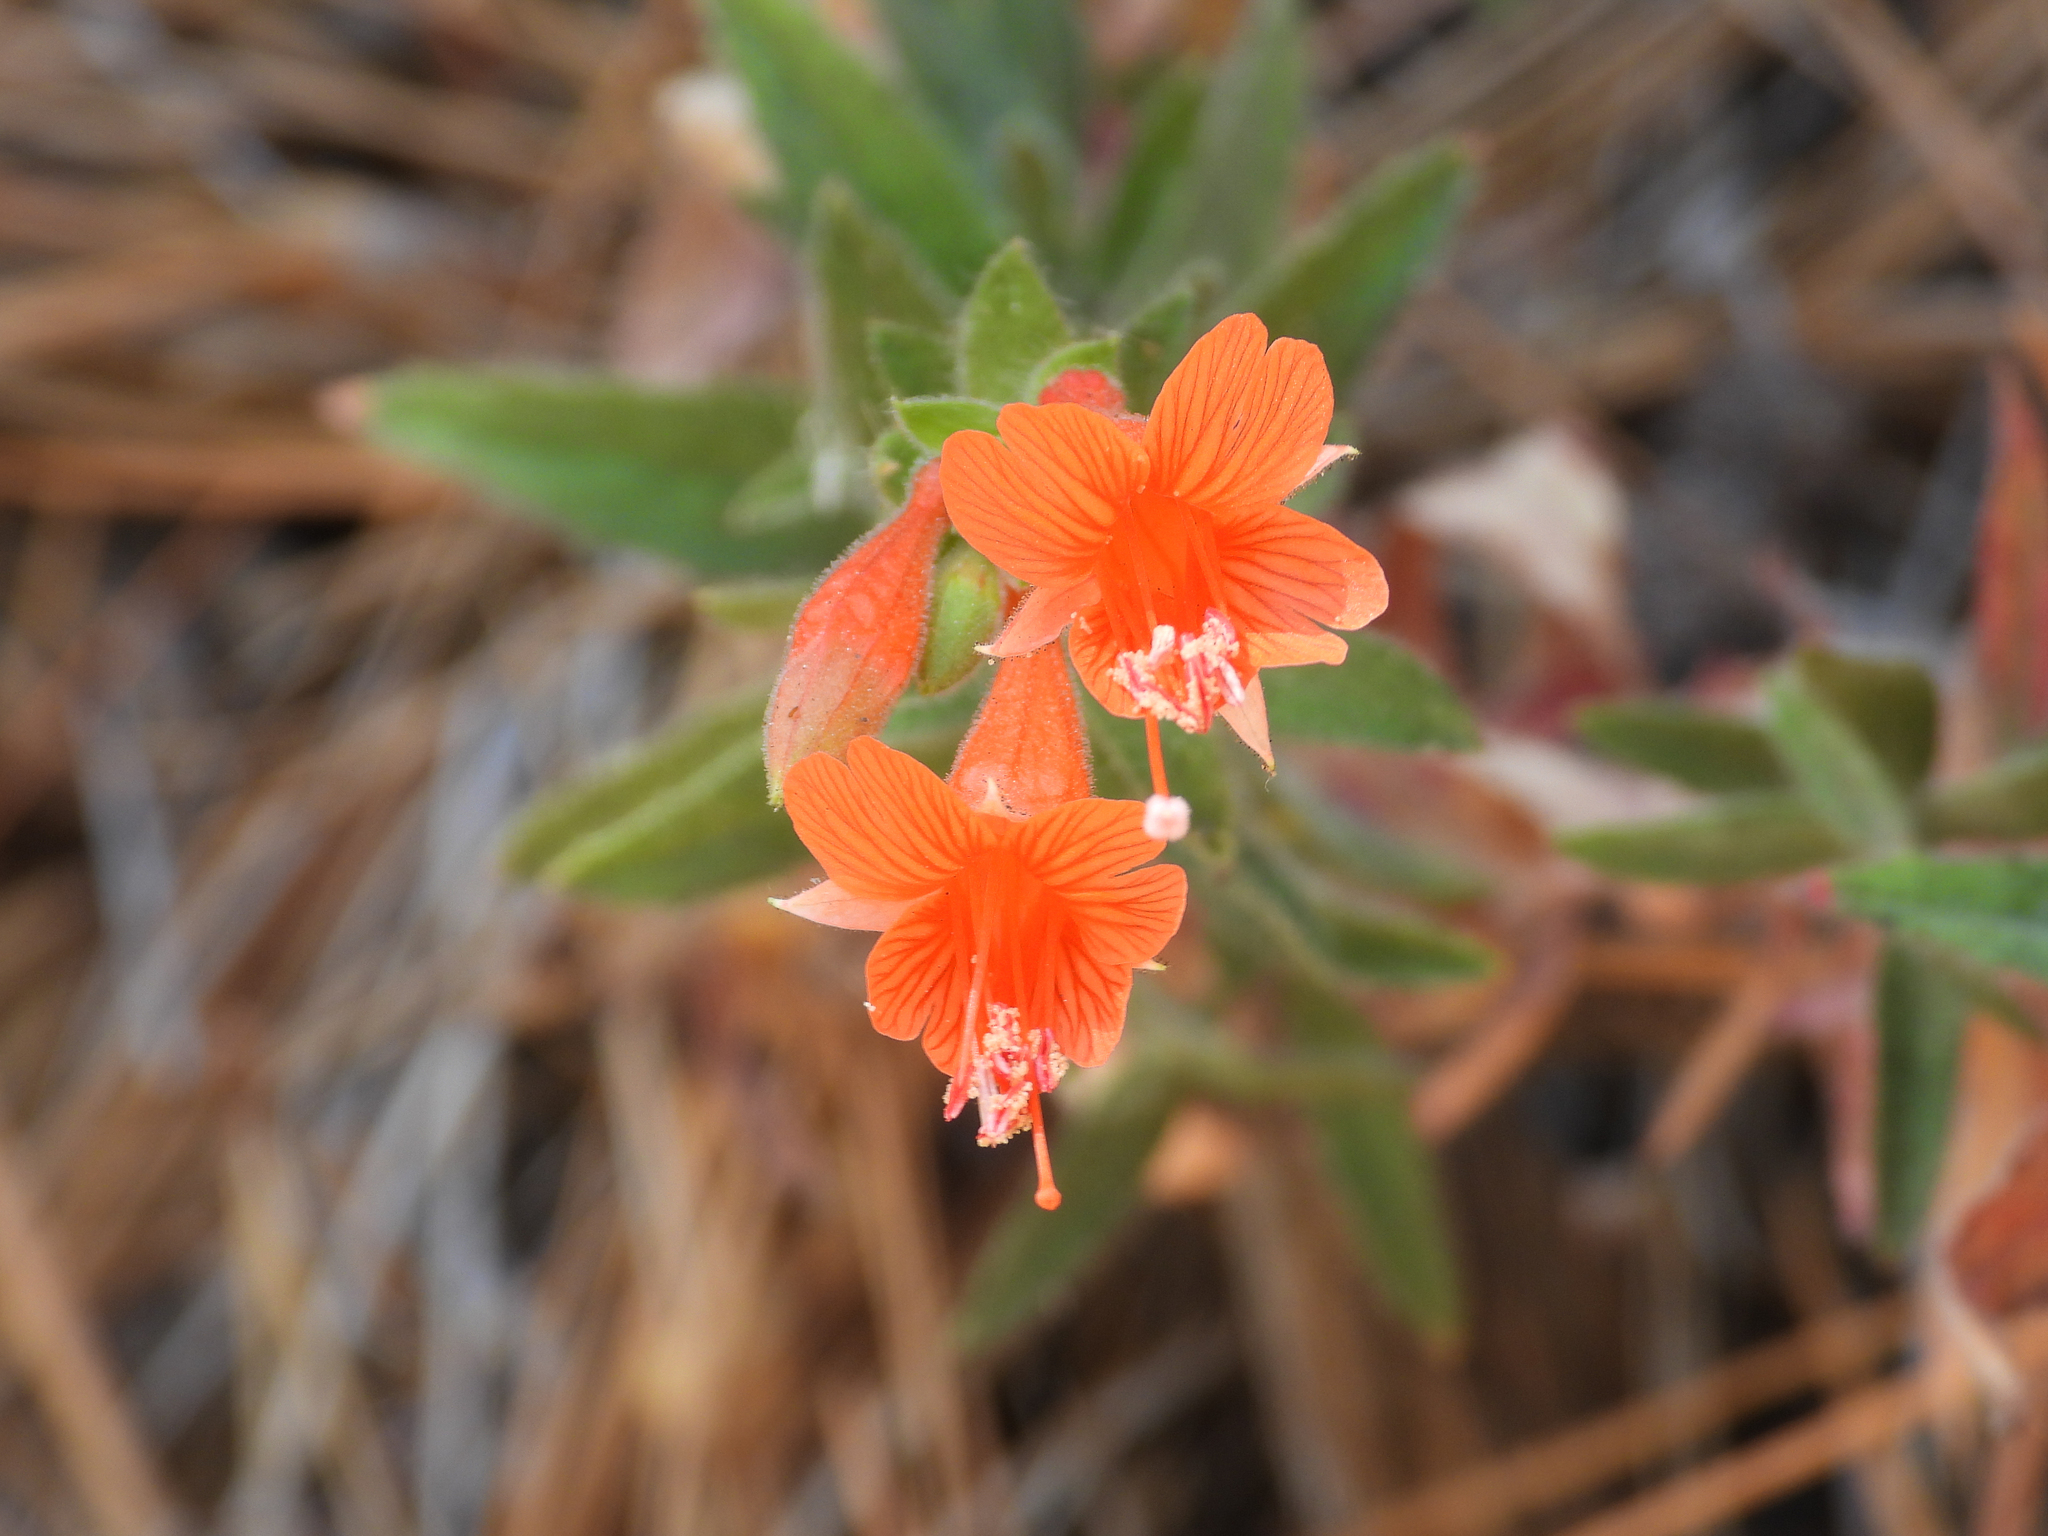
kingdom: Plantae
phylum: Tracheophyta
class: Magnoliopsida
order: Myrtales
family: Onagraceae
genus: Epilobium
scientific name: Epilobium canum
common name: California-fuchsia
